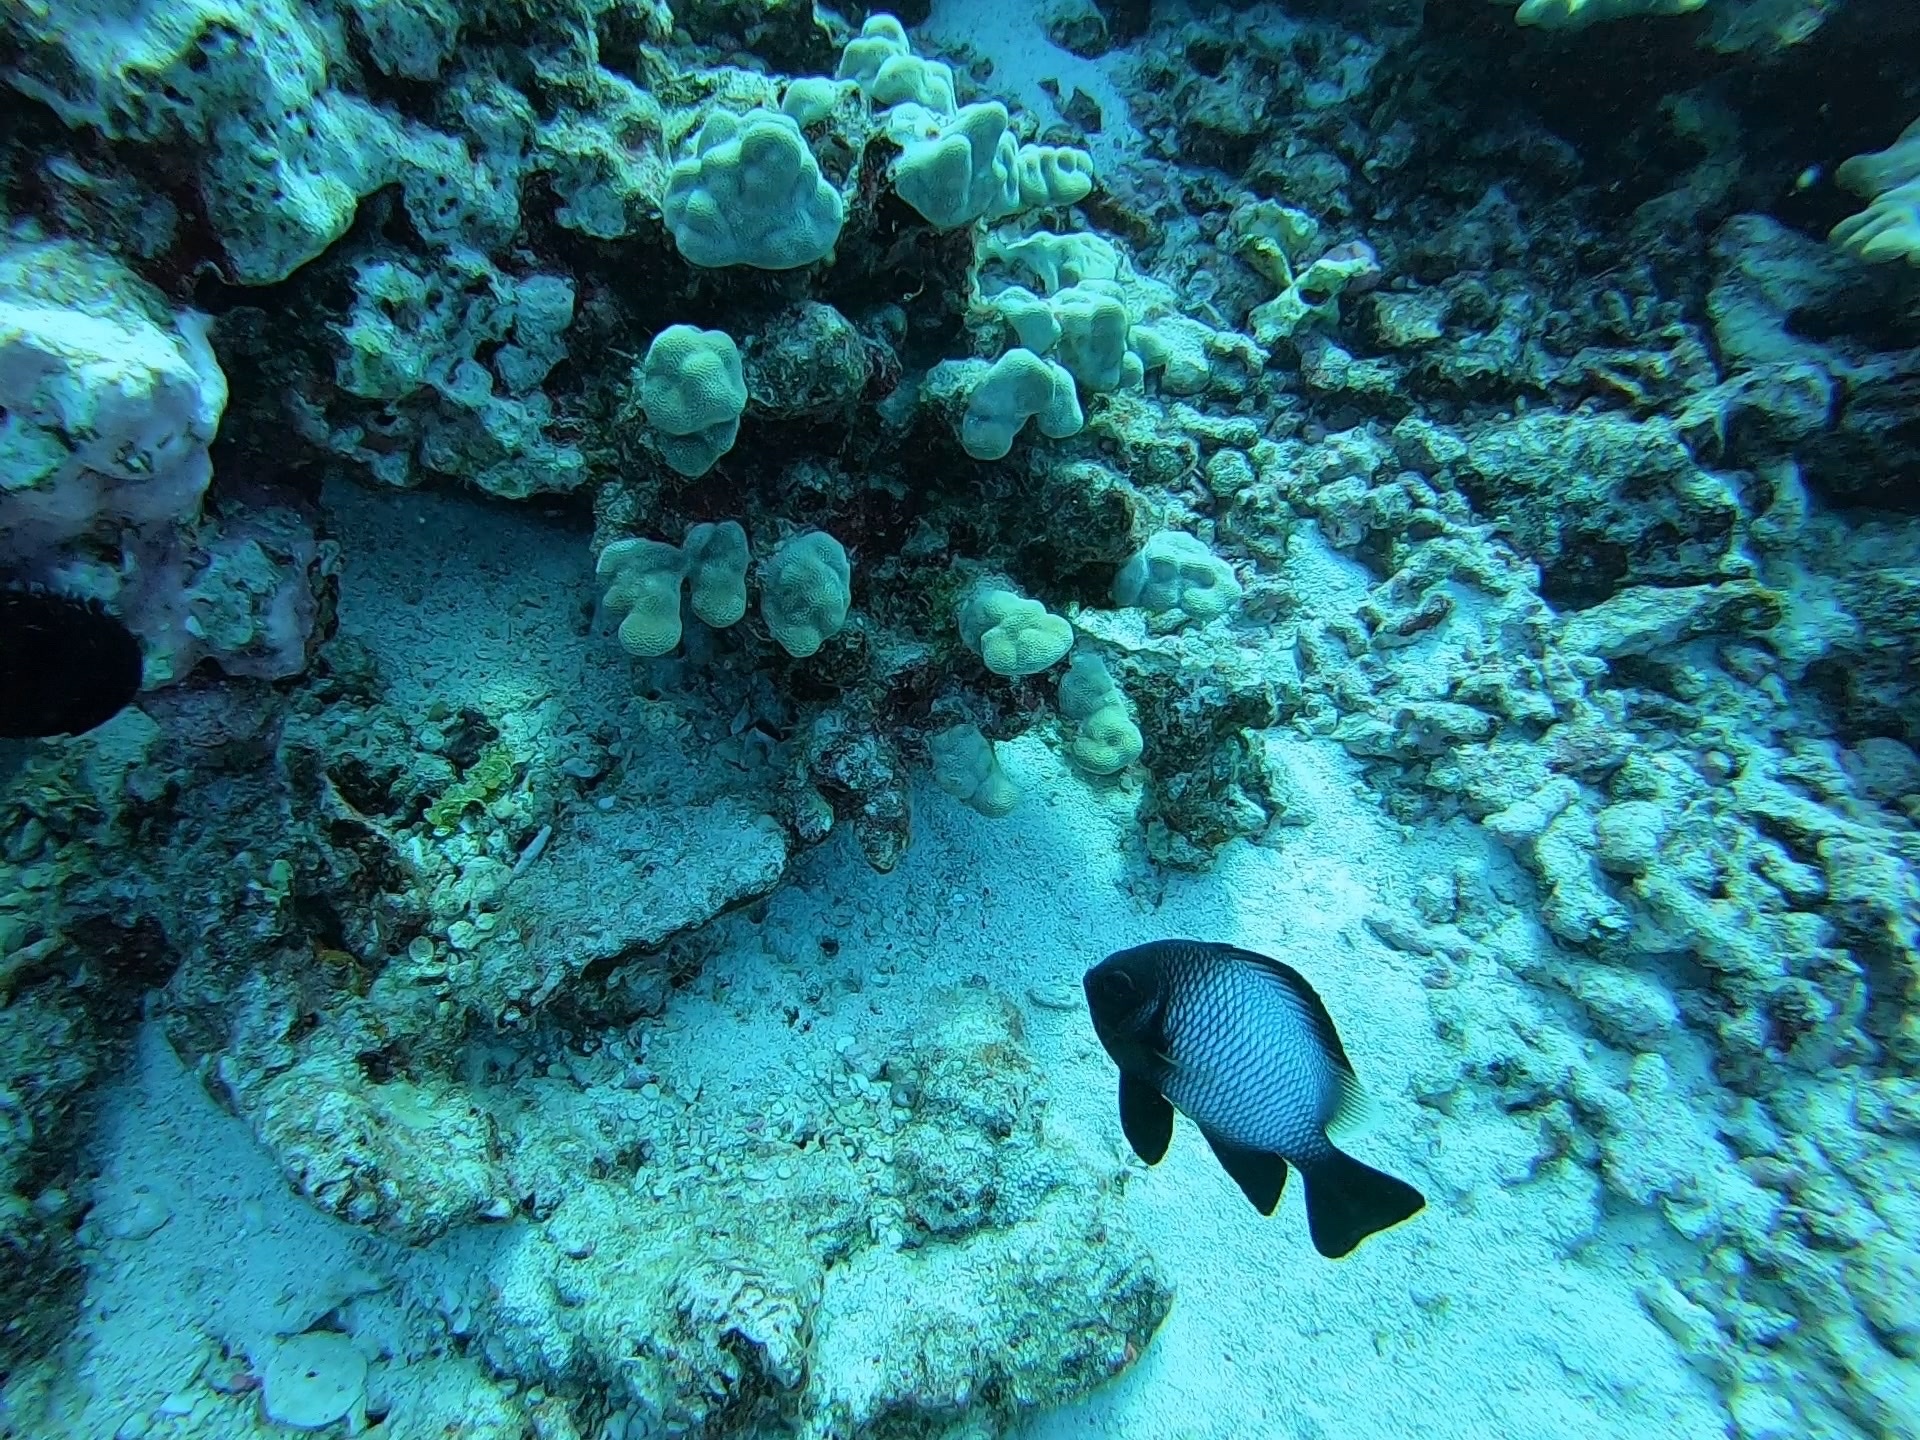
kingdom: Animalia
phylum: Chordata
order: Perciformes
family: Pomacentridae
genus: Dascyllus
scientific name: Dascyllus albisella
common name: Hawaiian dascyllus
